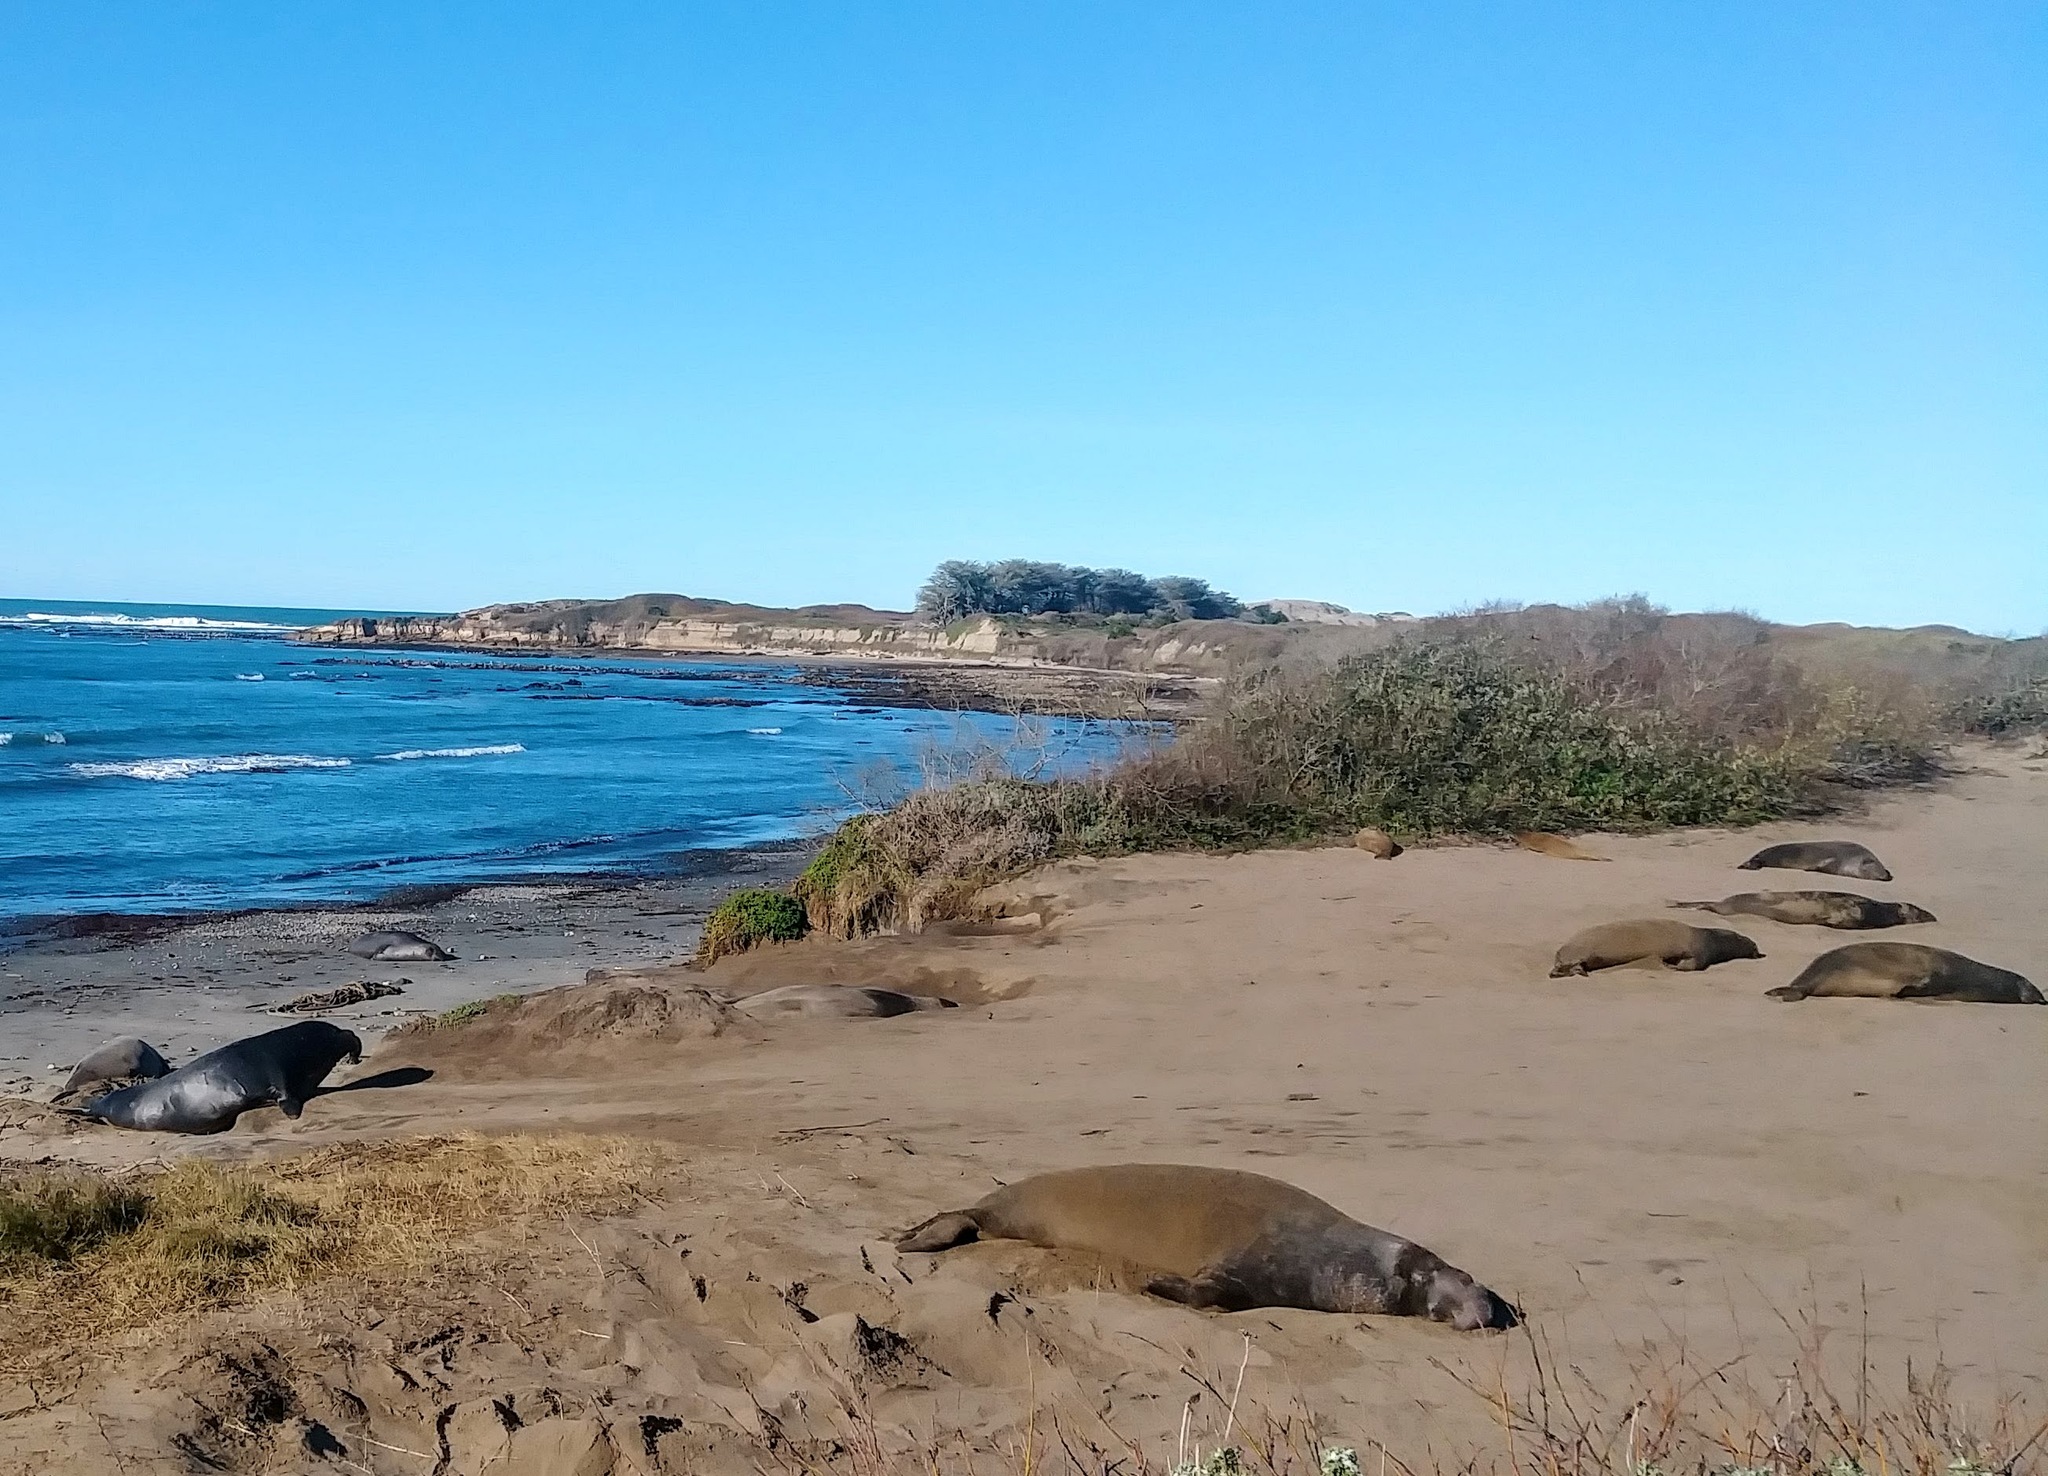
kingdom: Animalia
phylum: Chordata
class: Mammalia
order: Carnivora
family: Phocidae
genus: Mirounga
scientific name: Mirounga angustirostris
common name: Northern elephant seal
